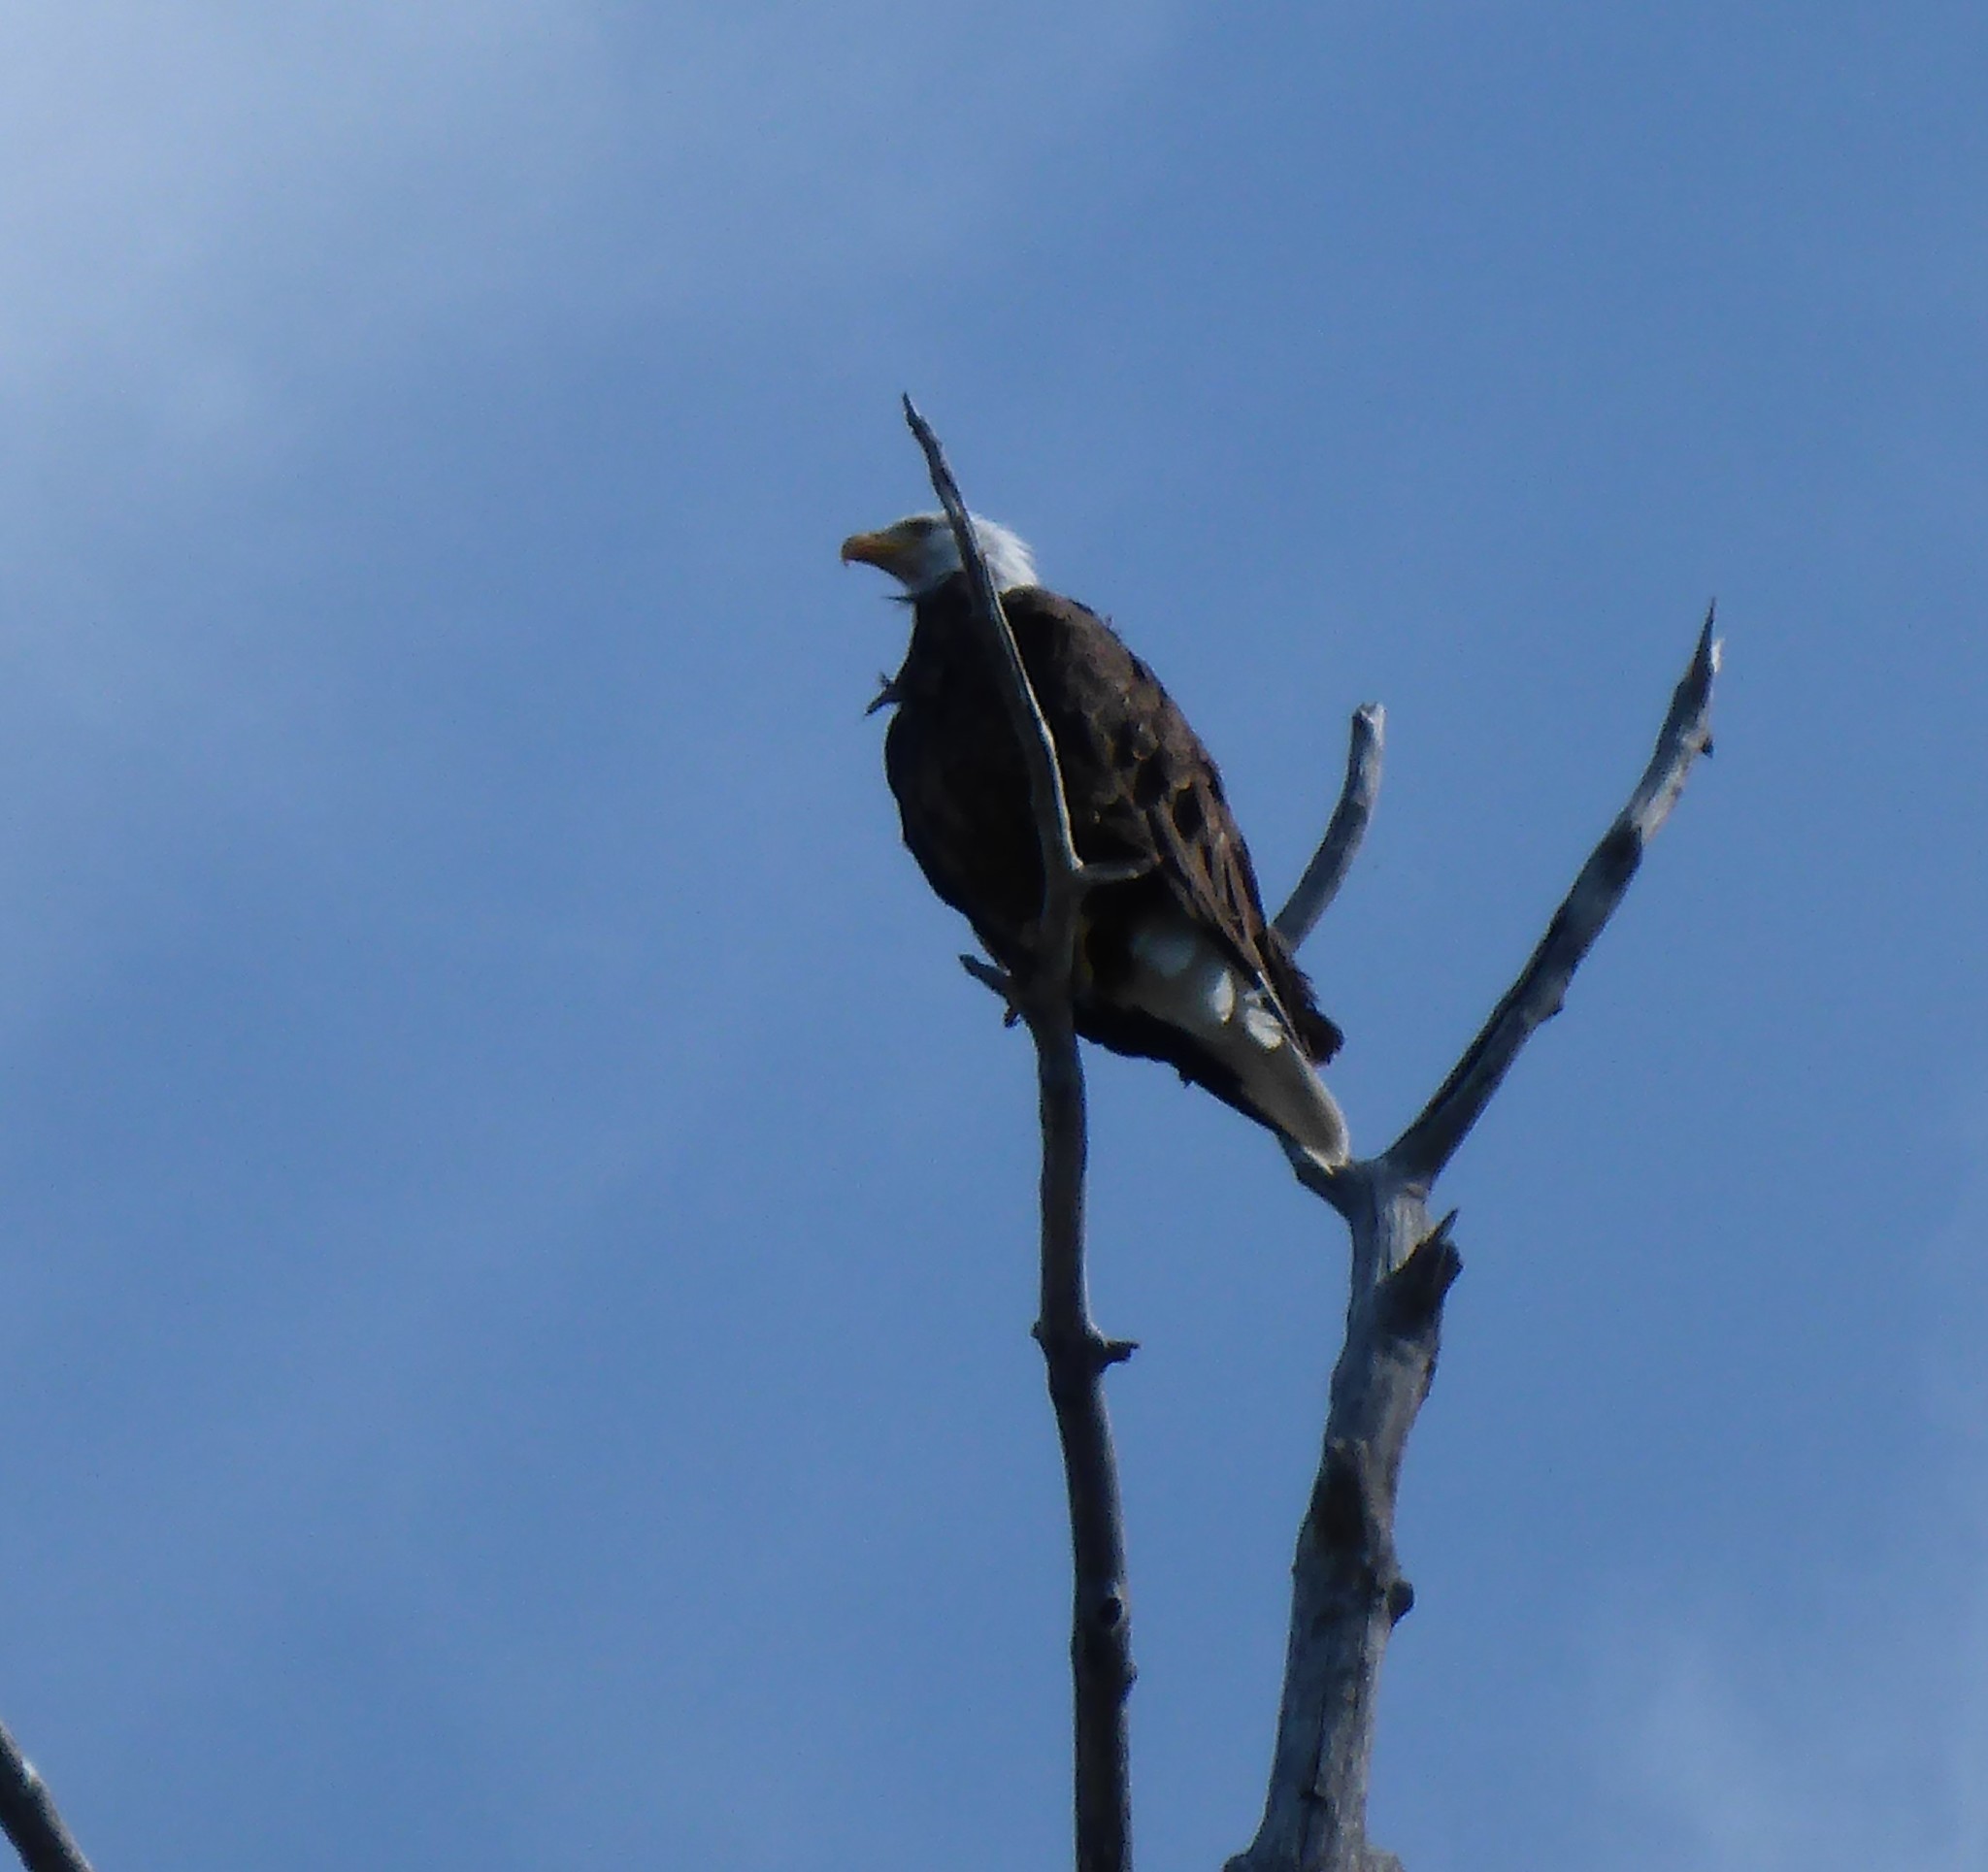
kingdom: Animalia
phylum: Chordata
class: Aves
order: Accipitriformes
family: Accipitridae
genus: Haliaeetus
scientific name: Haliaeetus leucocephalus
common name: Bald eagle
